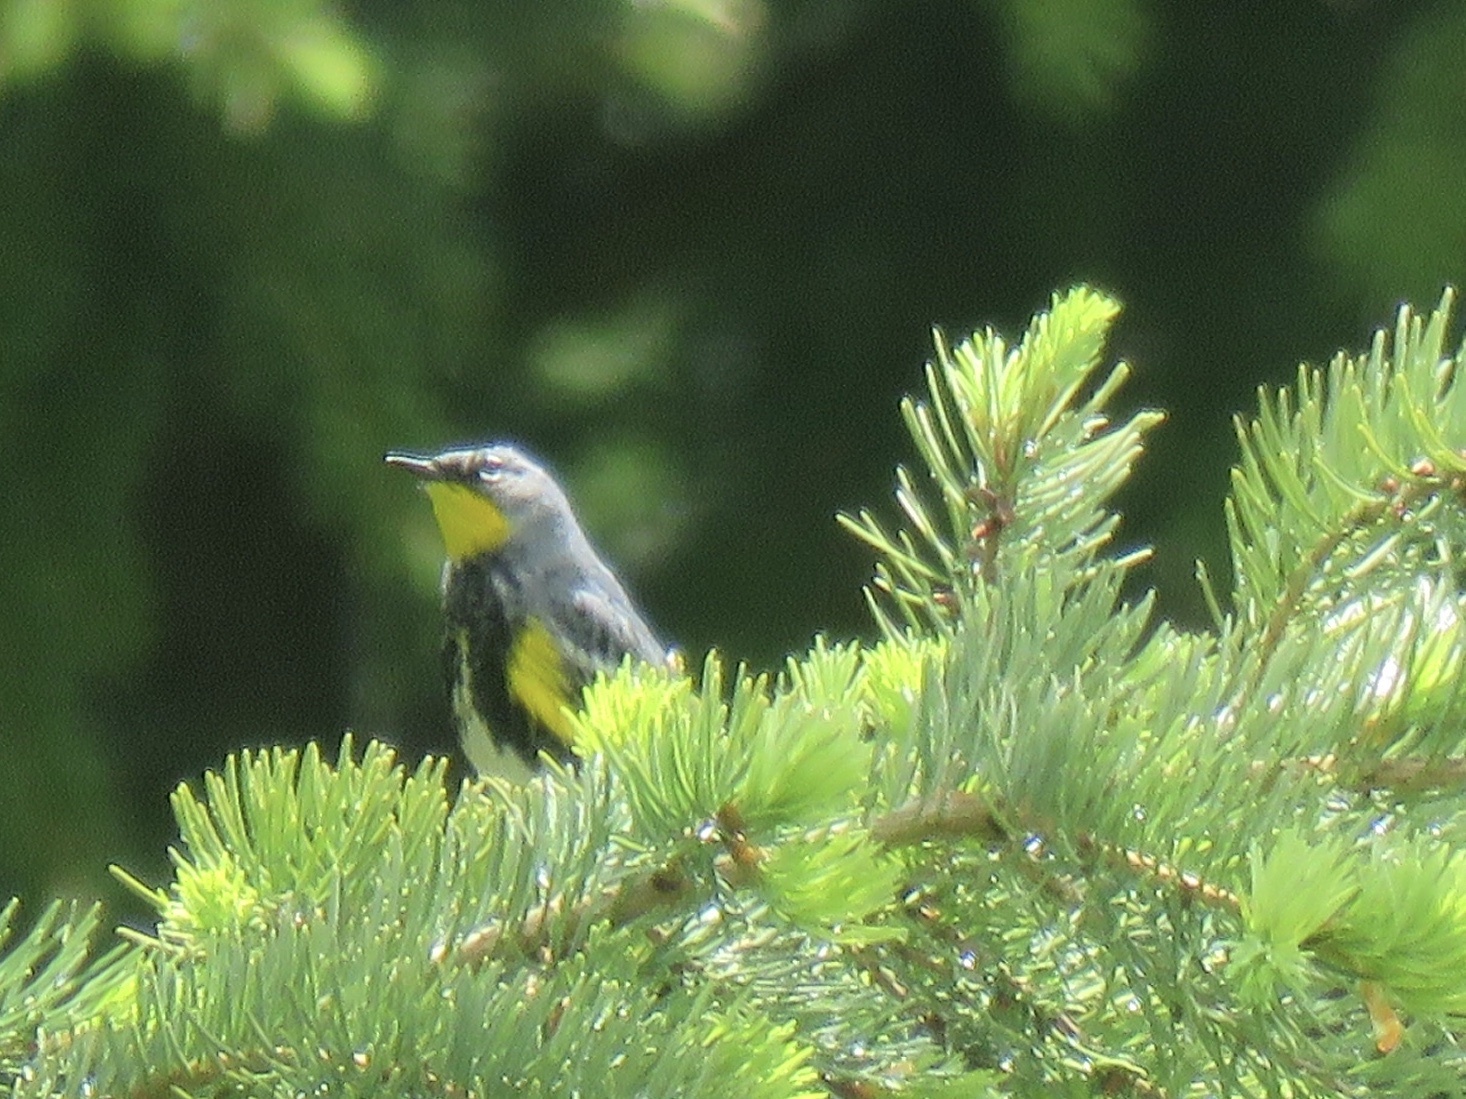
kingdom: Animalia
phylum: Chordata
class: Aves
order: Passeriformes
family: Parulidae
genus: Setophaga
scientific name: Setophaga coronata
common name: Myrtle warbler
